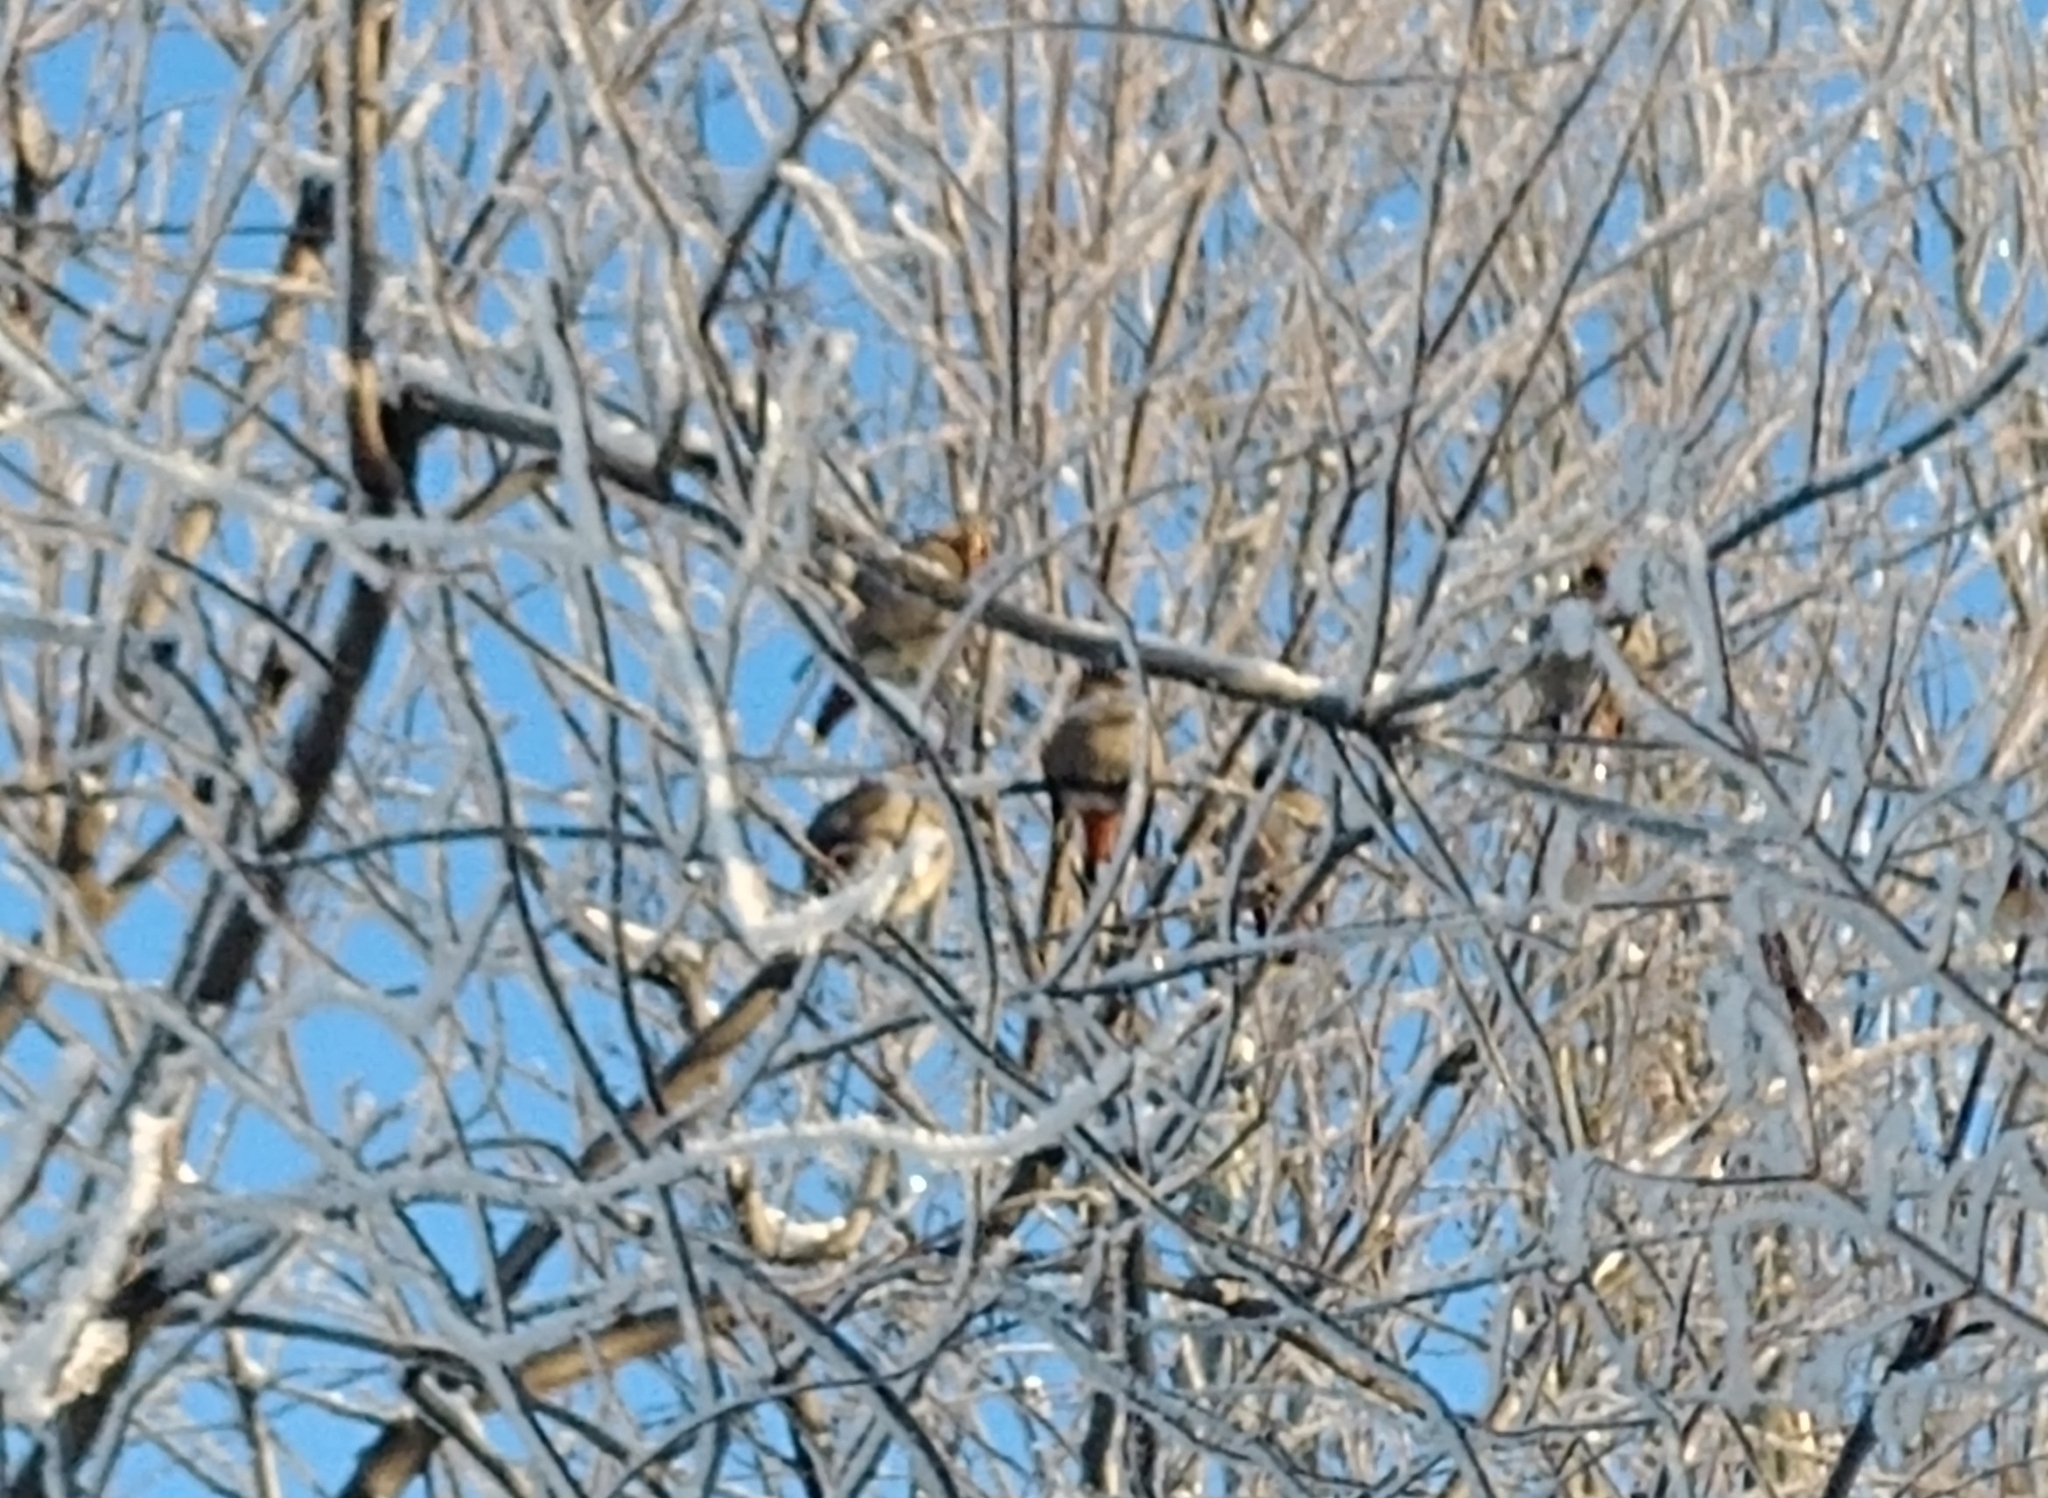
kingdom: Animalia
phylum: Chordata
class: Aves
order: Passeriformes
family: Bombycillidae
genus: Bombycilla
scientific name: Bombycilla garrulus
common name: Bohemian waxwing
